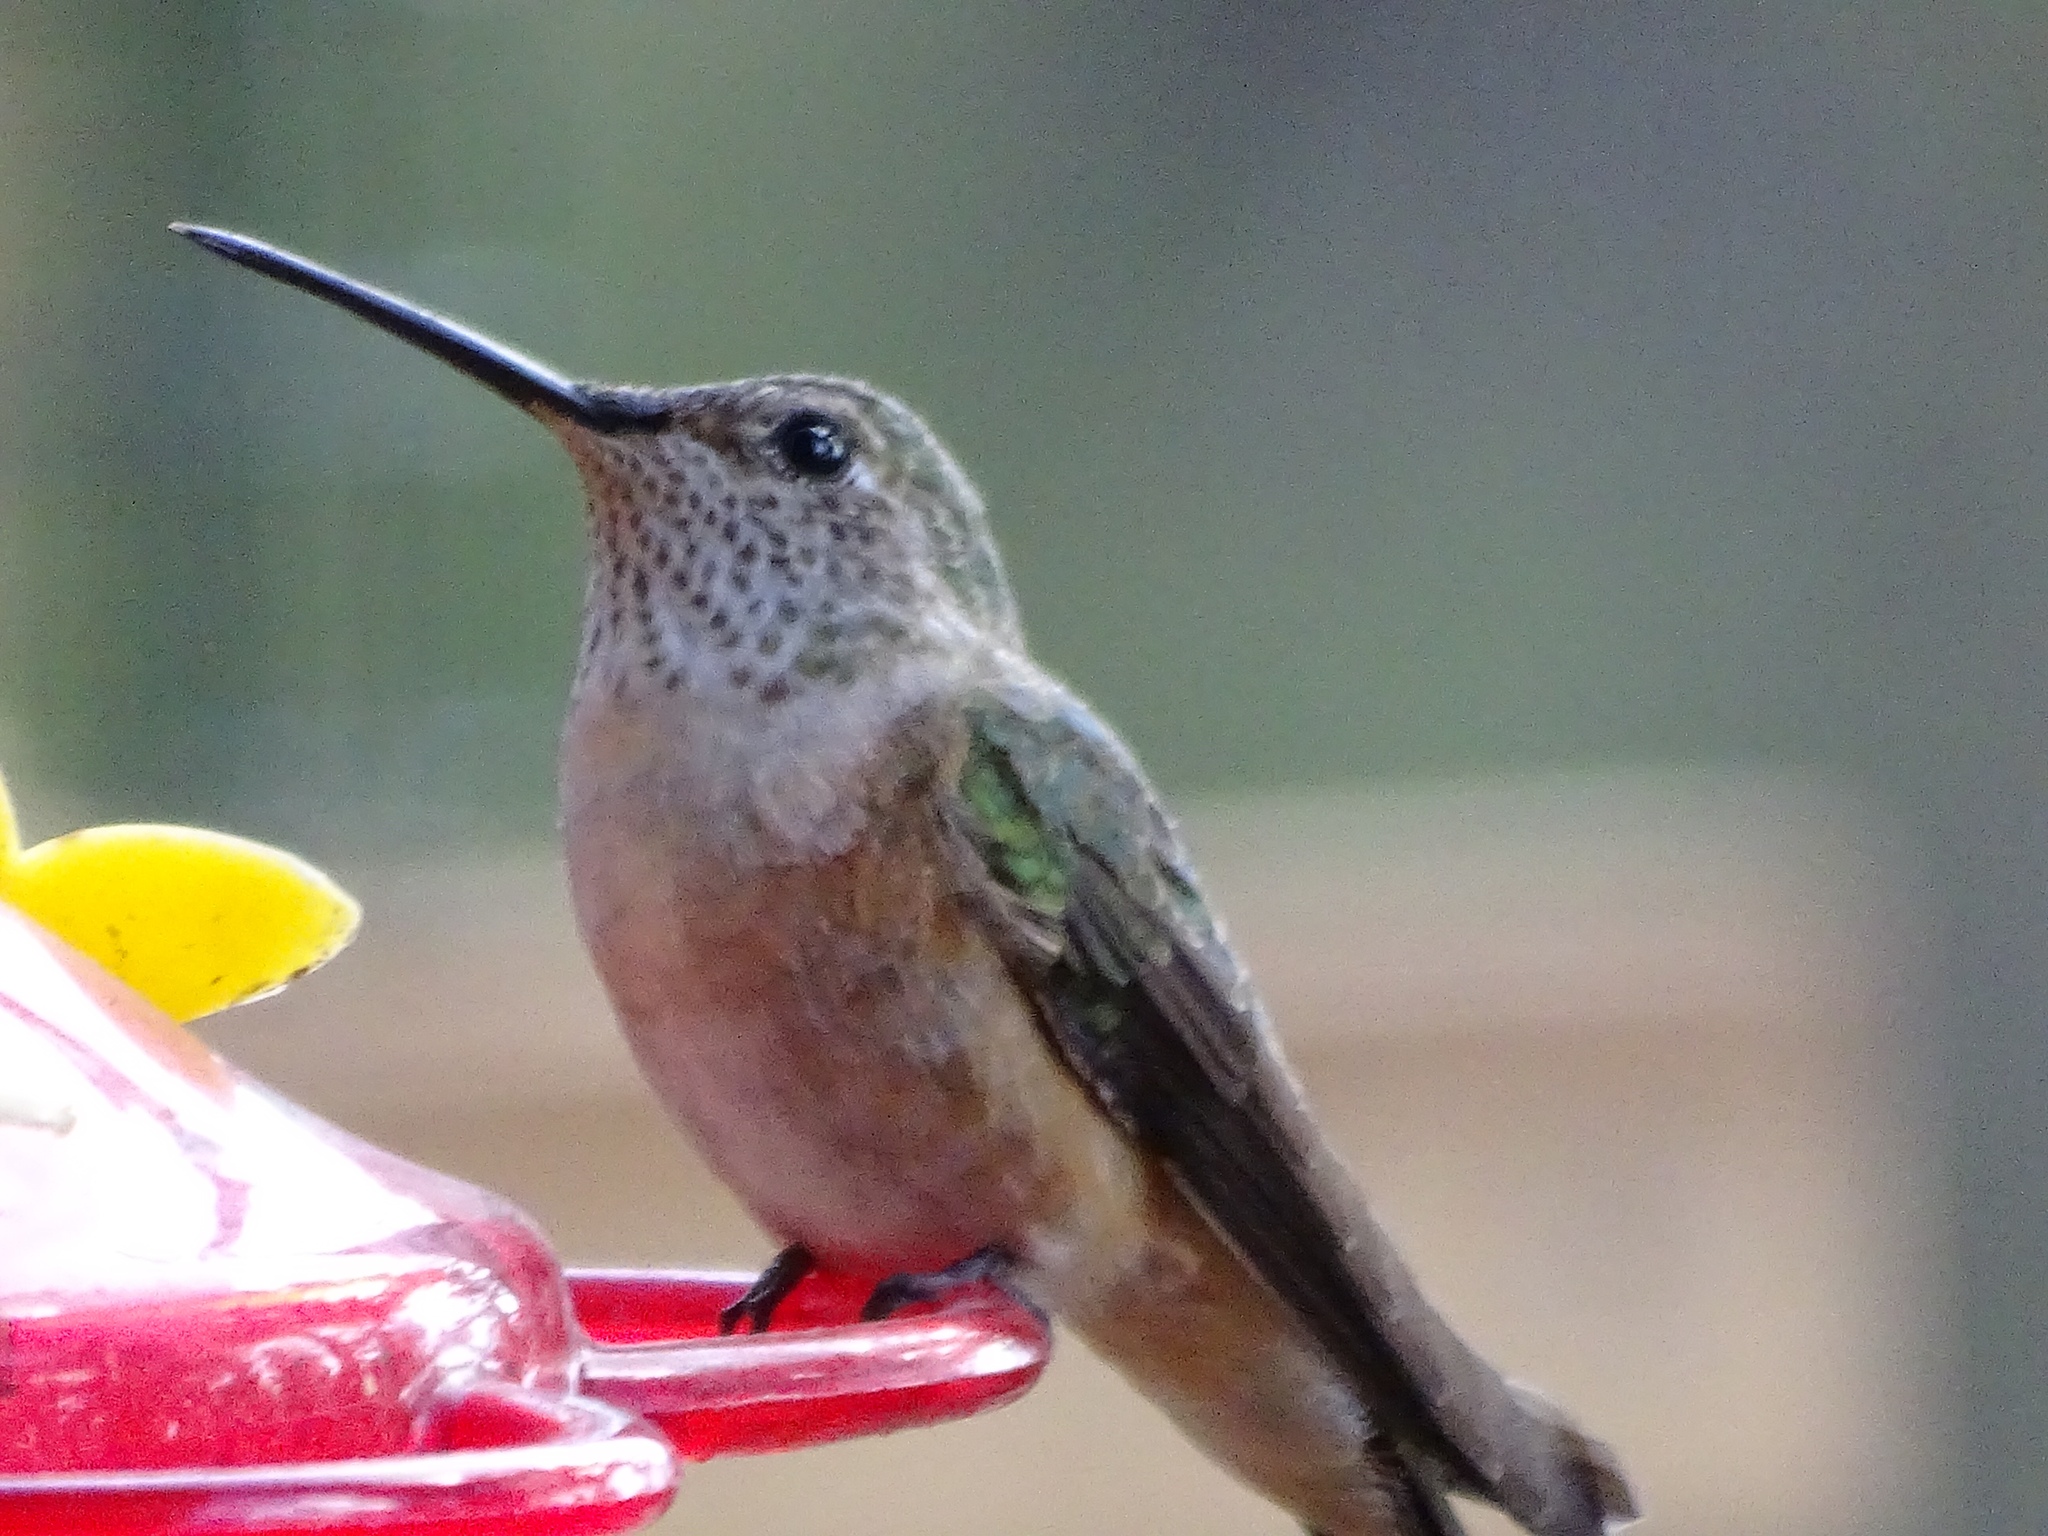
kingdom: Animalia
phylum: Chordata
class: Aves
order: Apodiformes
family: Trochilidae
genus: Selasphorus
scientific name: Selasphorus platycercus
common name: Broad-tailed hummingbird
